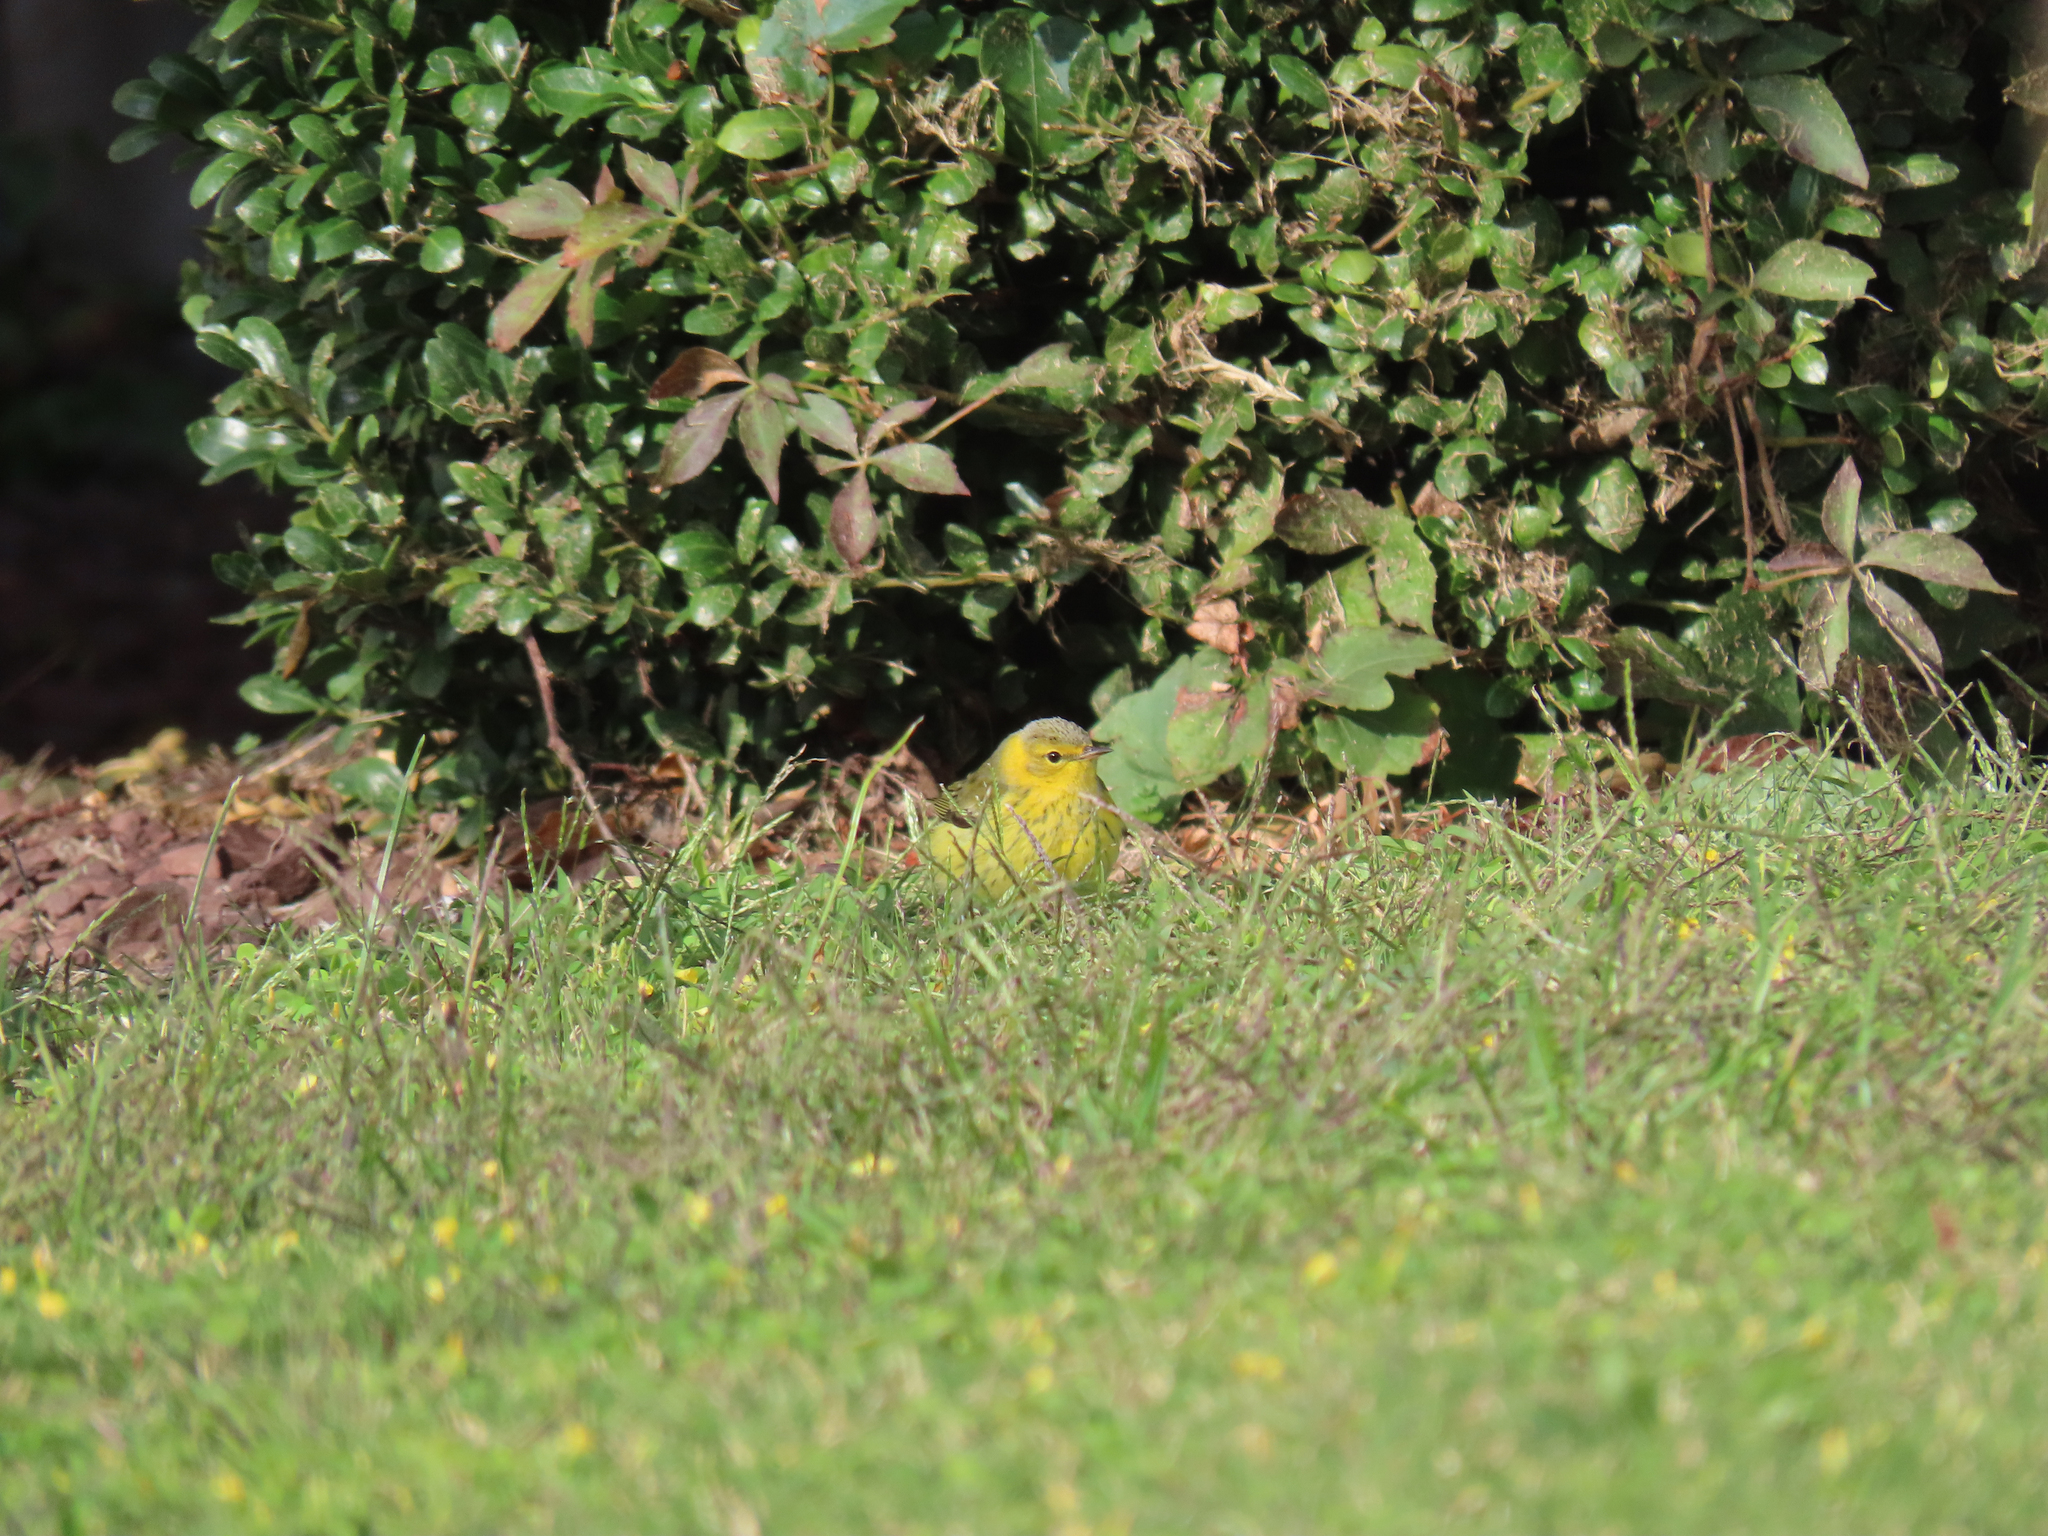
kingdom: Animalia
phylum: Chordata
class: Aves
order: Passeriformes
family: Parulidae
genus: Setophaga
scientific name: Setophaga tigrina
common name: Cape may warbler
